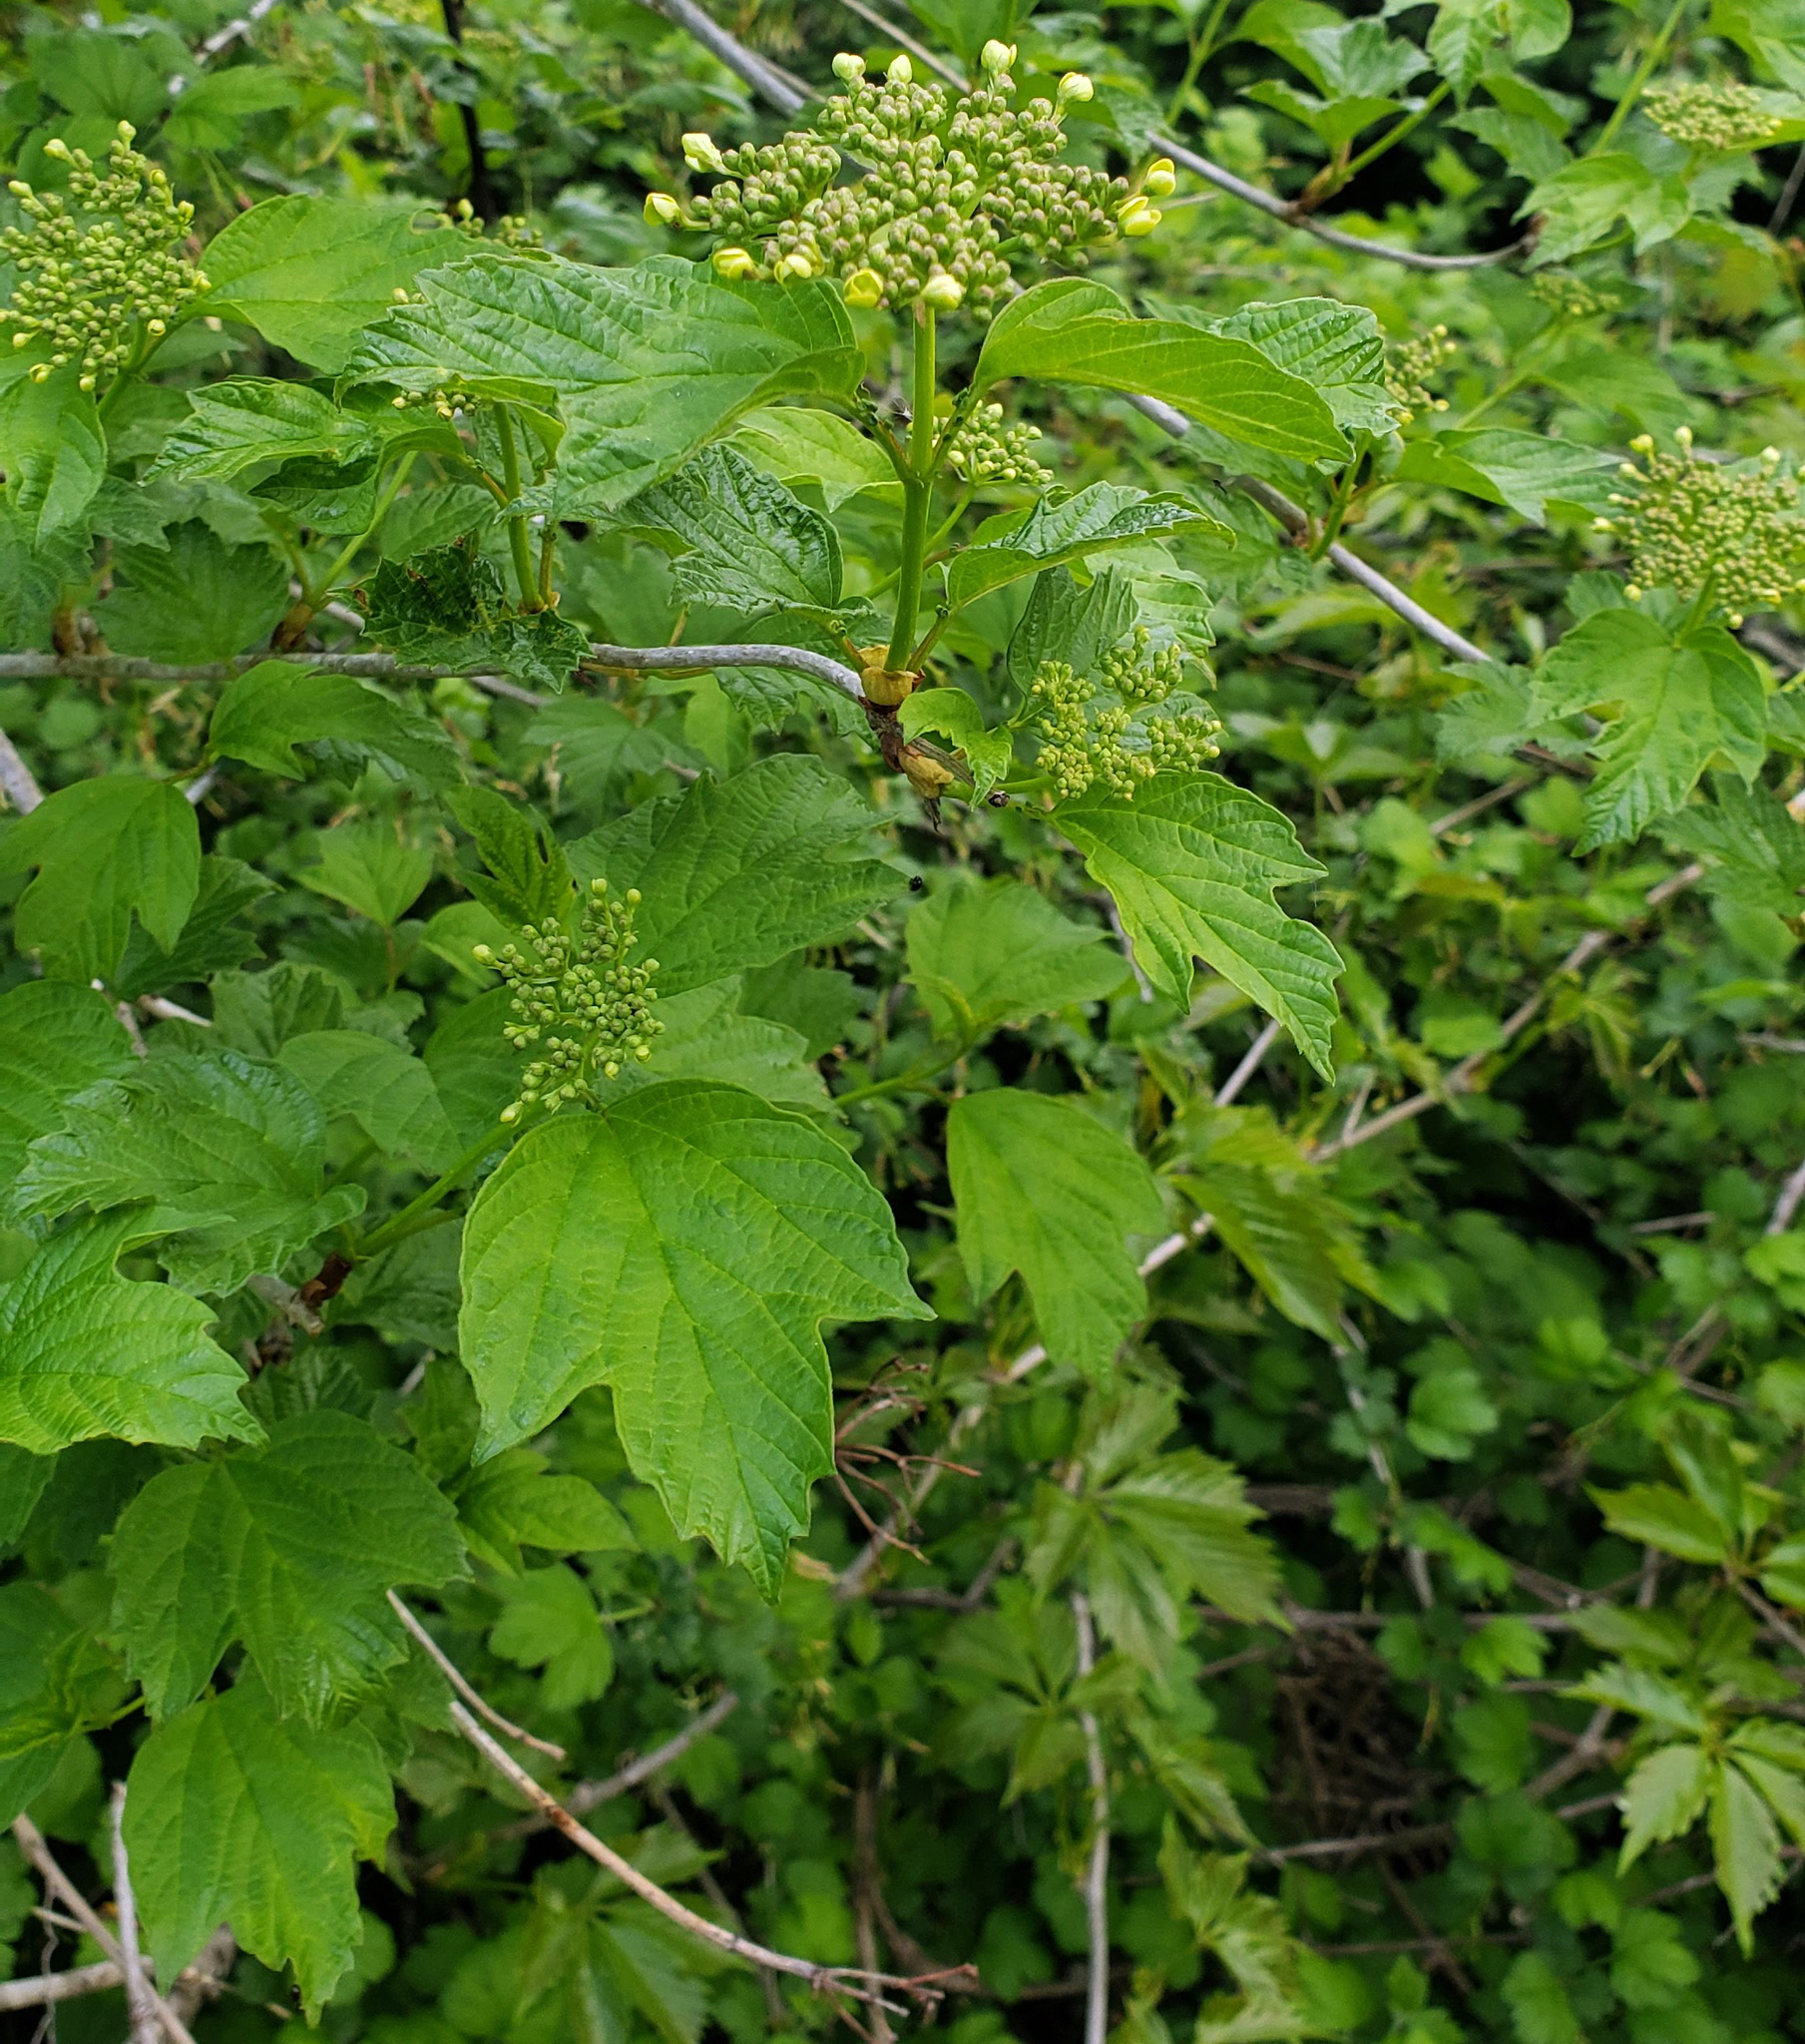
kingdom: Plantae
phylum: Tracheophyta
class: Magnoliopsida
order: Dipsacales
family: Viburnaceae
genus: Viburnum
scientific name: Viburnum opulus
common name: Guelder-rose
